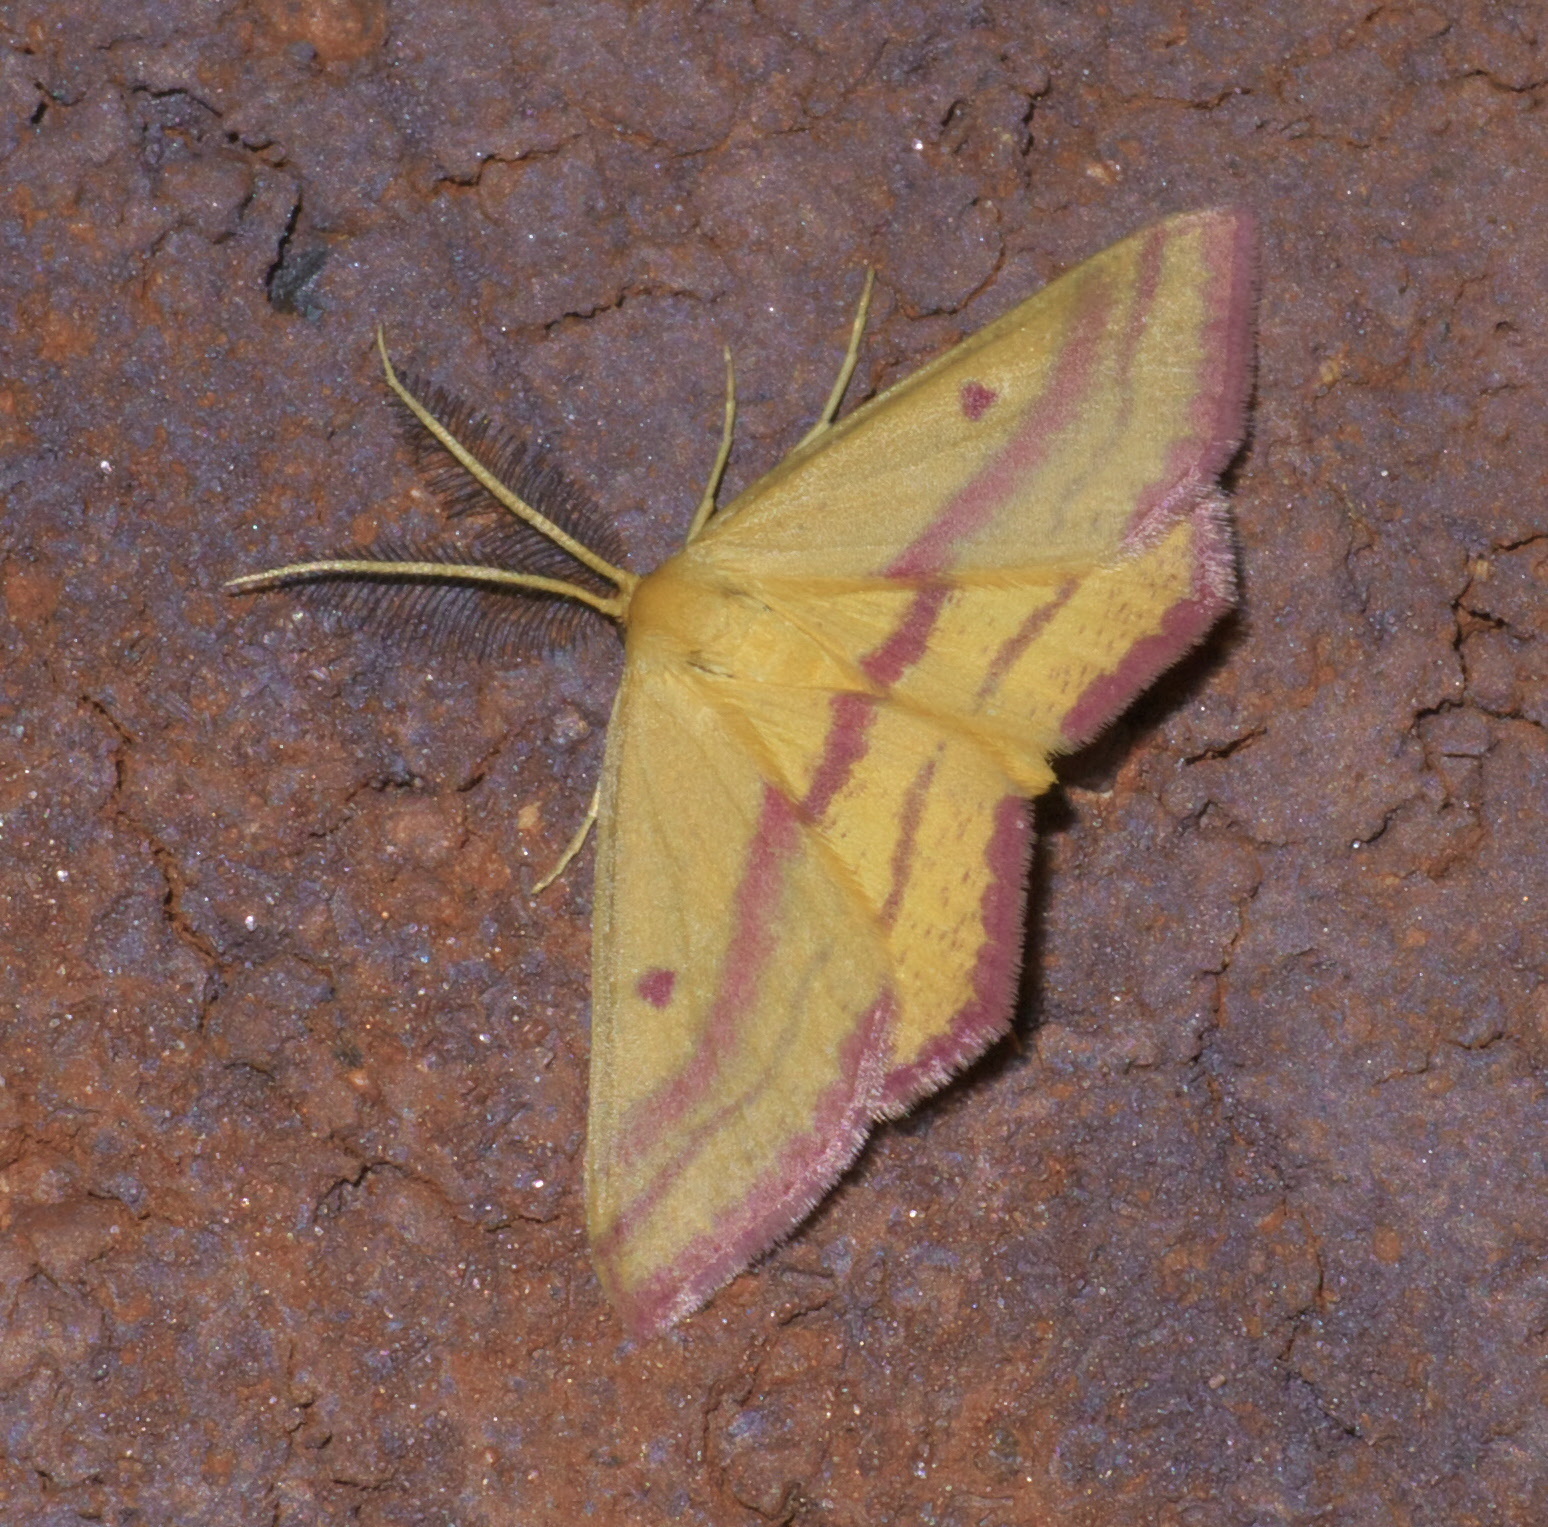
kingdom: Animalia
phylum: Arthropoda
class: Insecta
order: Lepidoptera
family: Geometridae
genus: Haematopis
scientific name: Haematopis grataria
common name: Chickweed geometer
